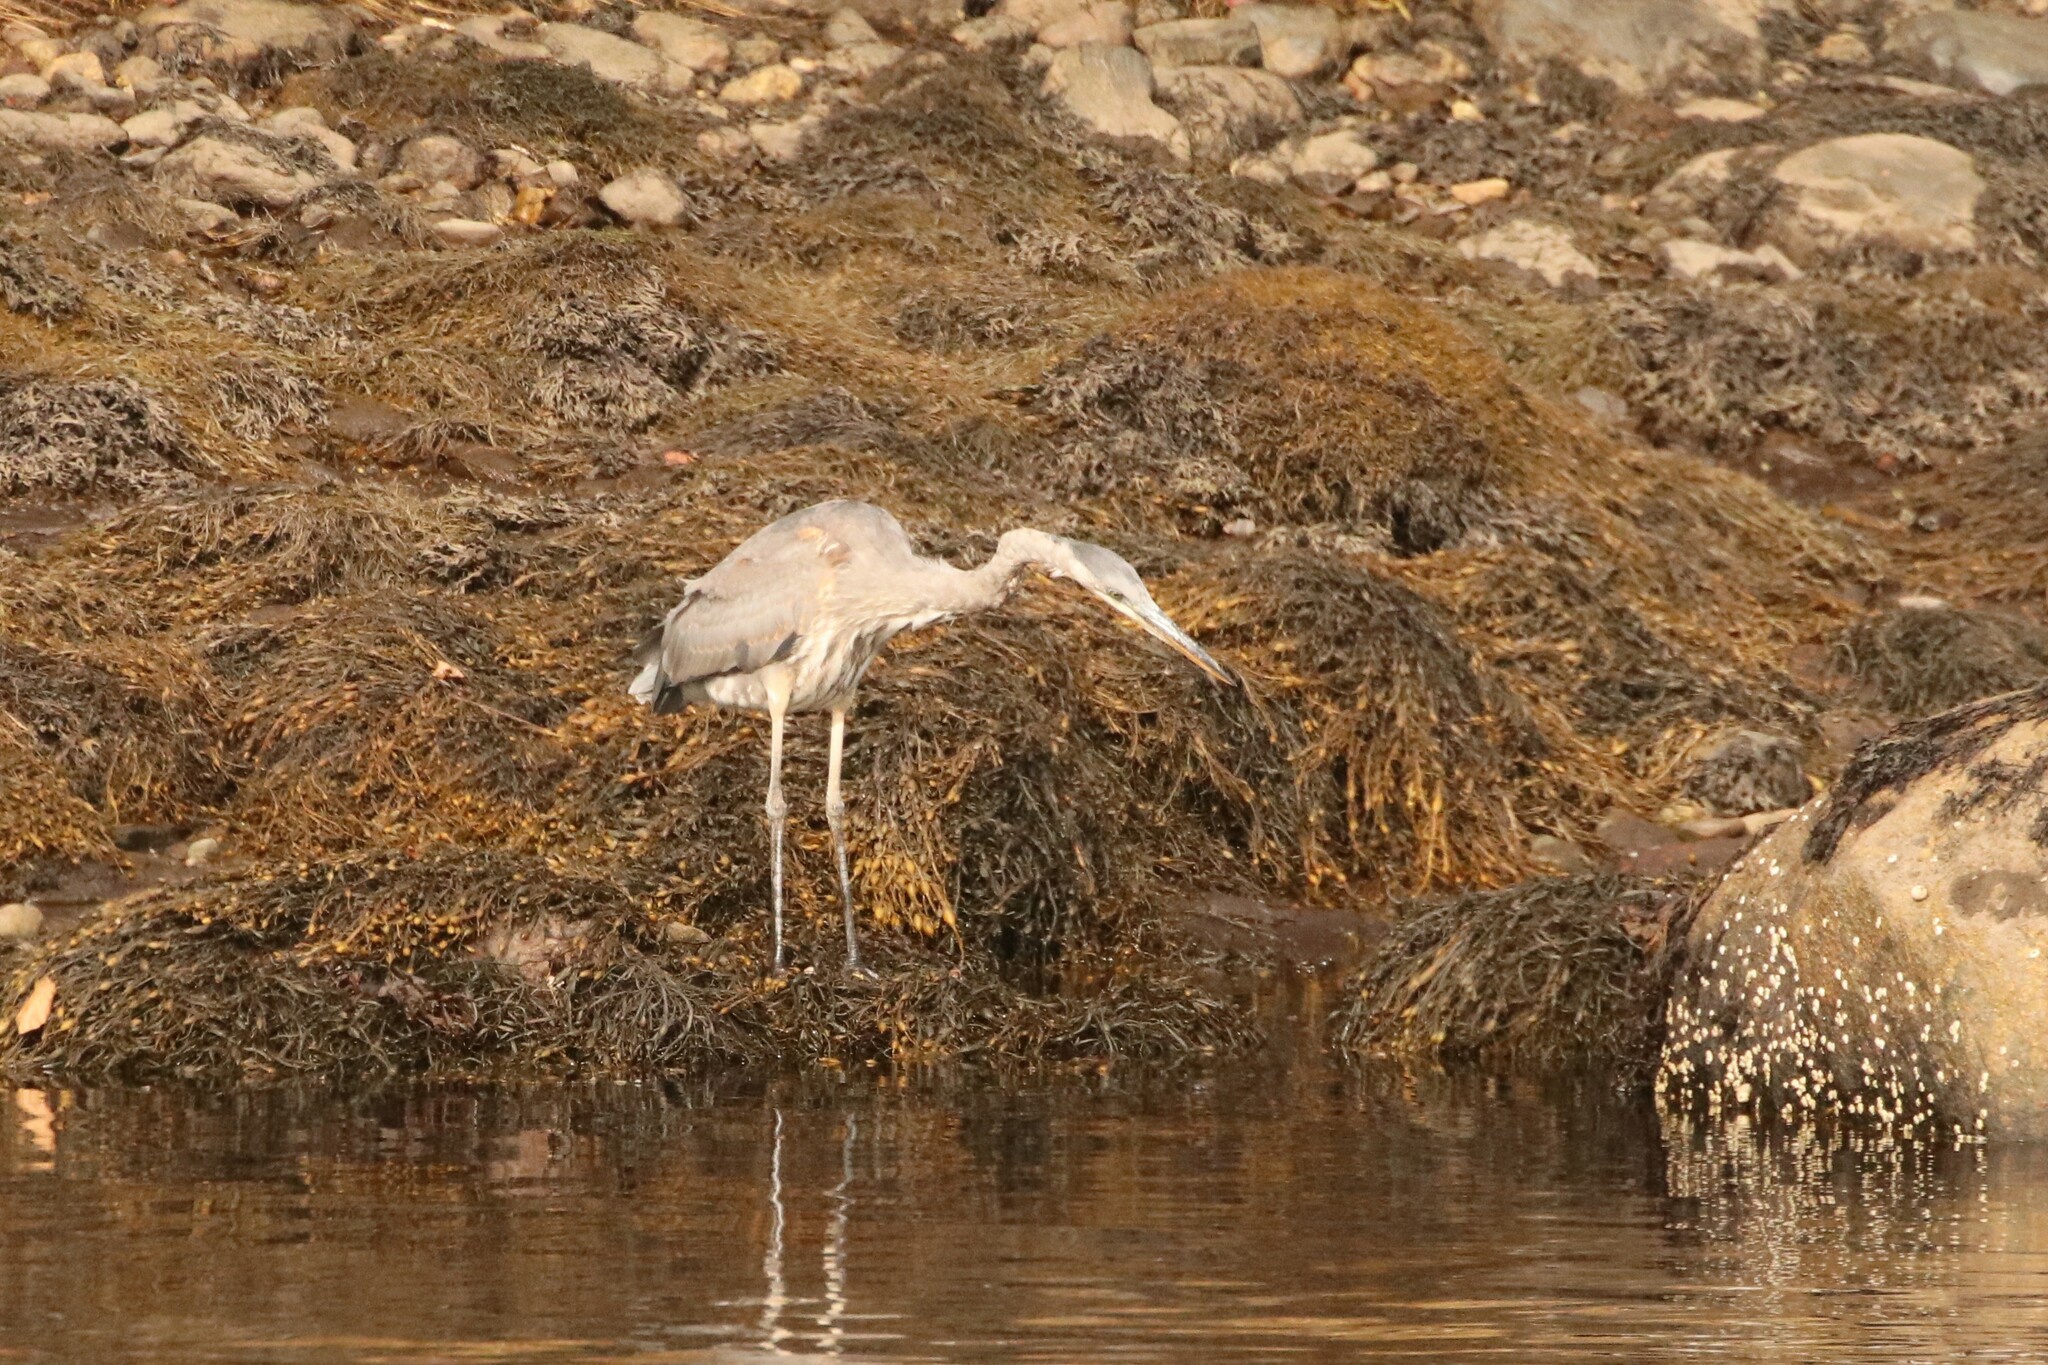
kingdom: Animalia
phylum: Chordata
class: Aves
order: Pelecaniformes
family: Ardeidae
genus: Ardea
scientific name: Ardea herodias
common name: Great blue heron
